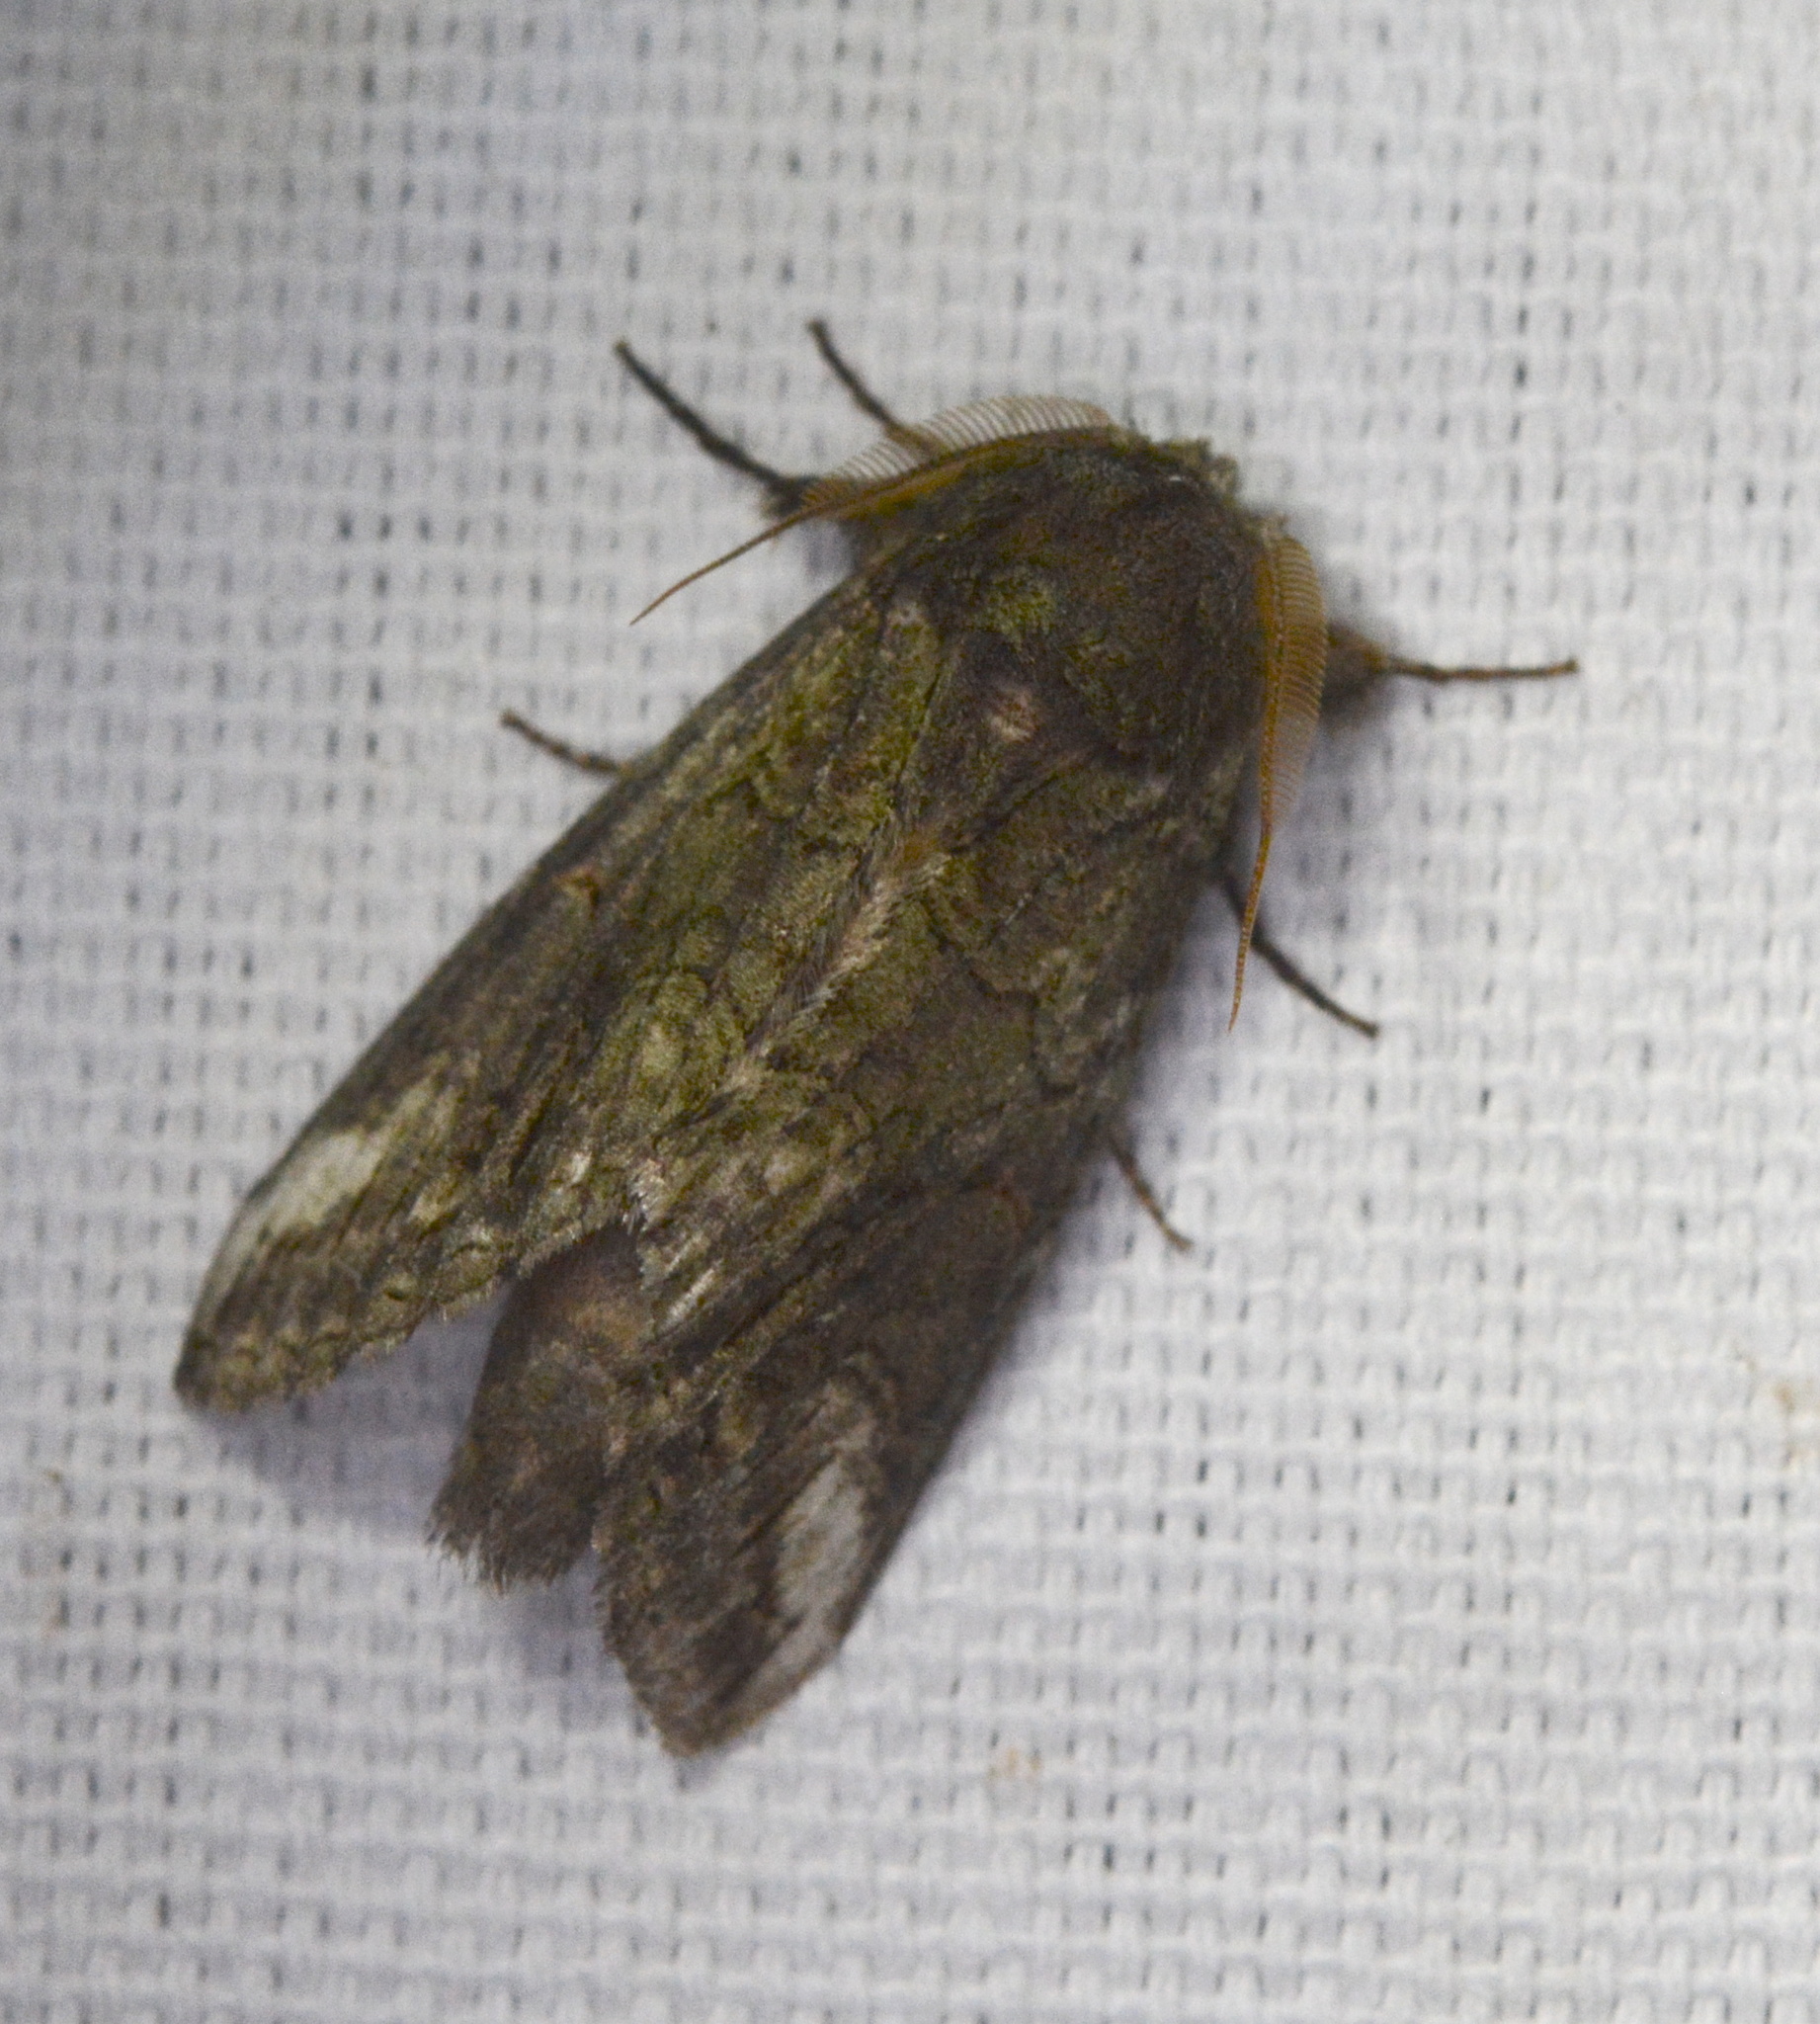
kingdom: Animalia
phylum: Arthropoda
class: Insecta
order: Lepidoptera
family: Notodontidae
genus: Heterocampa
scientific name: Heterocampa obliqua
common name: Oblique heterocampa
